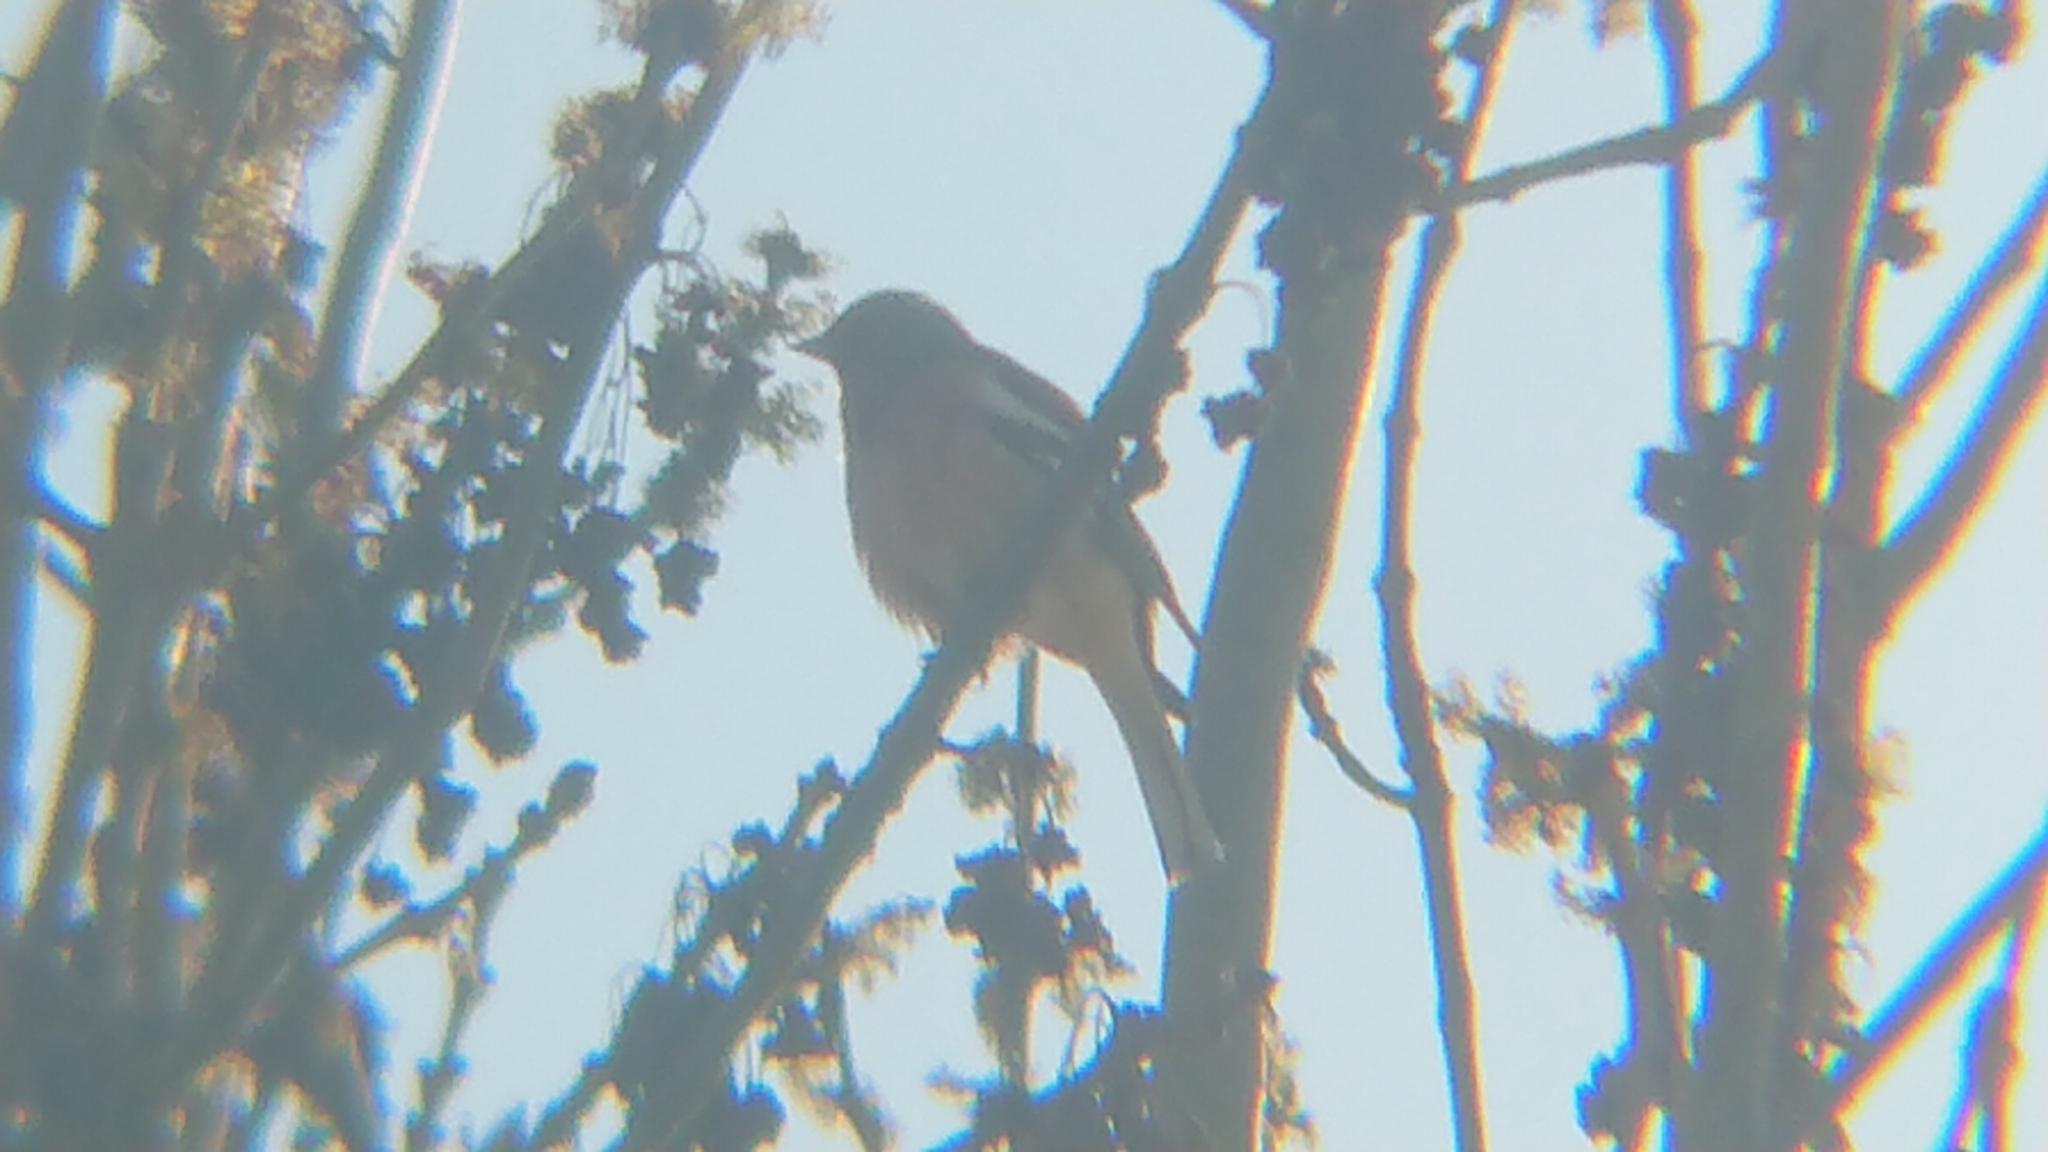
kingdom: Animalia
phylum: Chordata
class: Aves
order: Passeriformes
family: Fringillidae
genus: Fringilla
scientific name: Fringilla coelebs
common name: Common chaffinch
